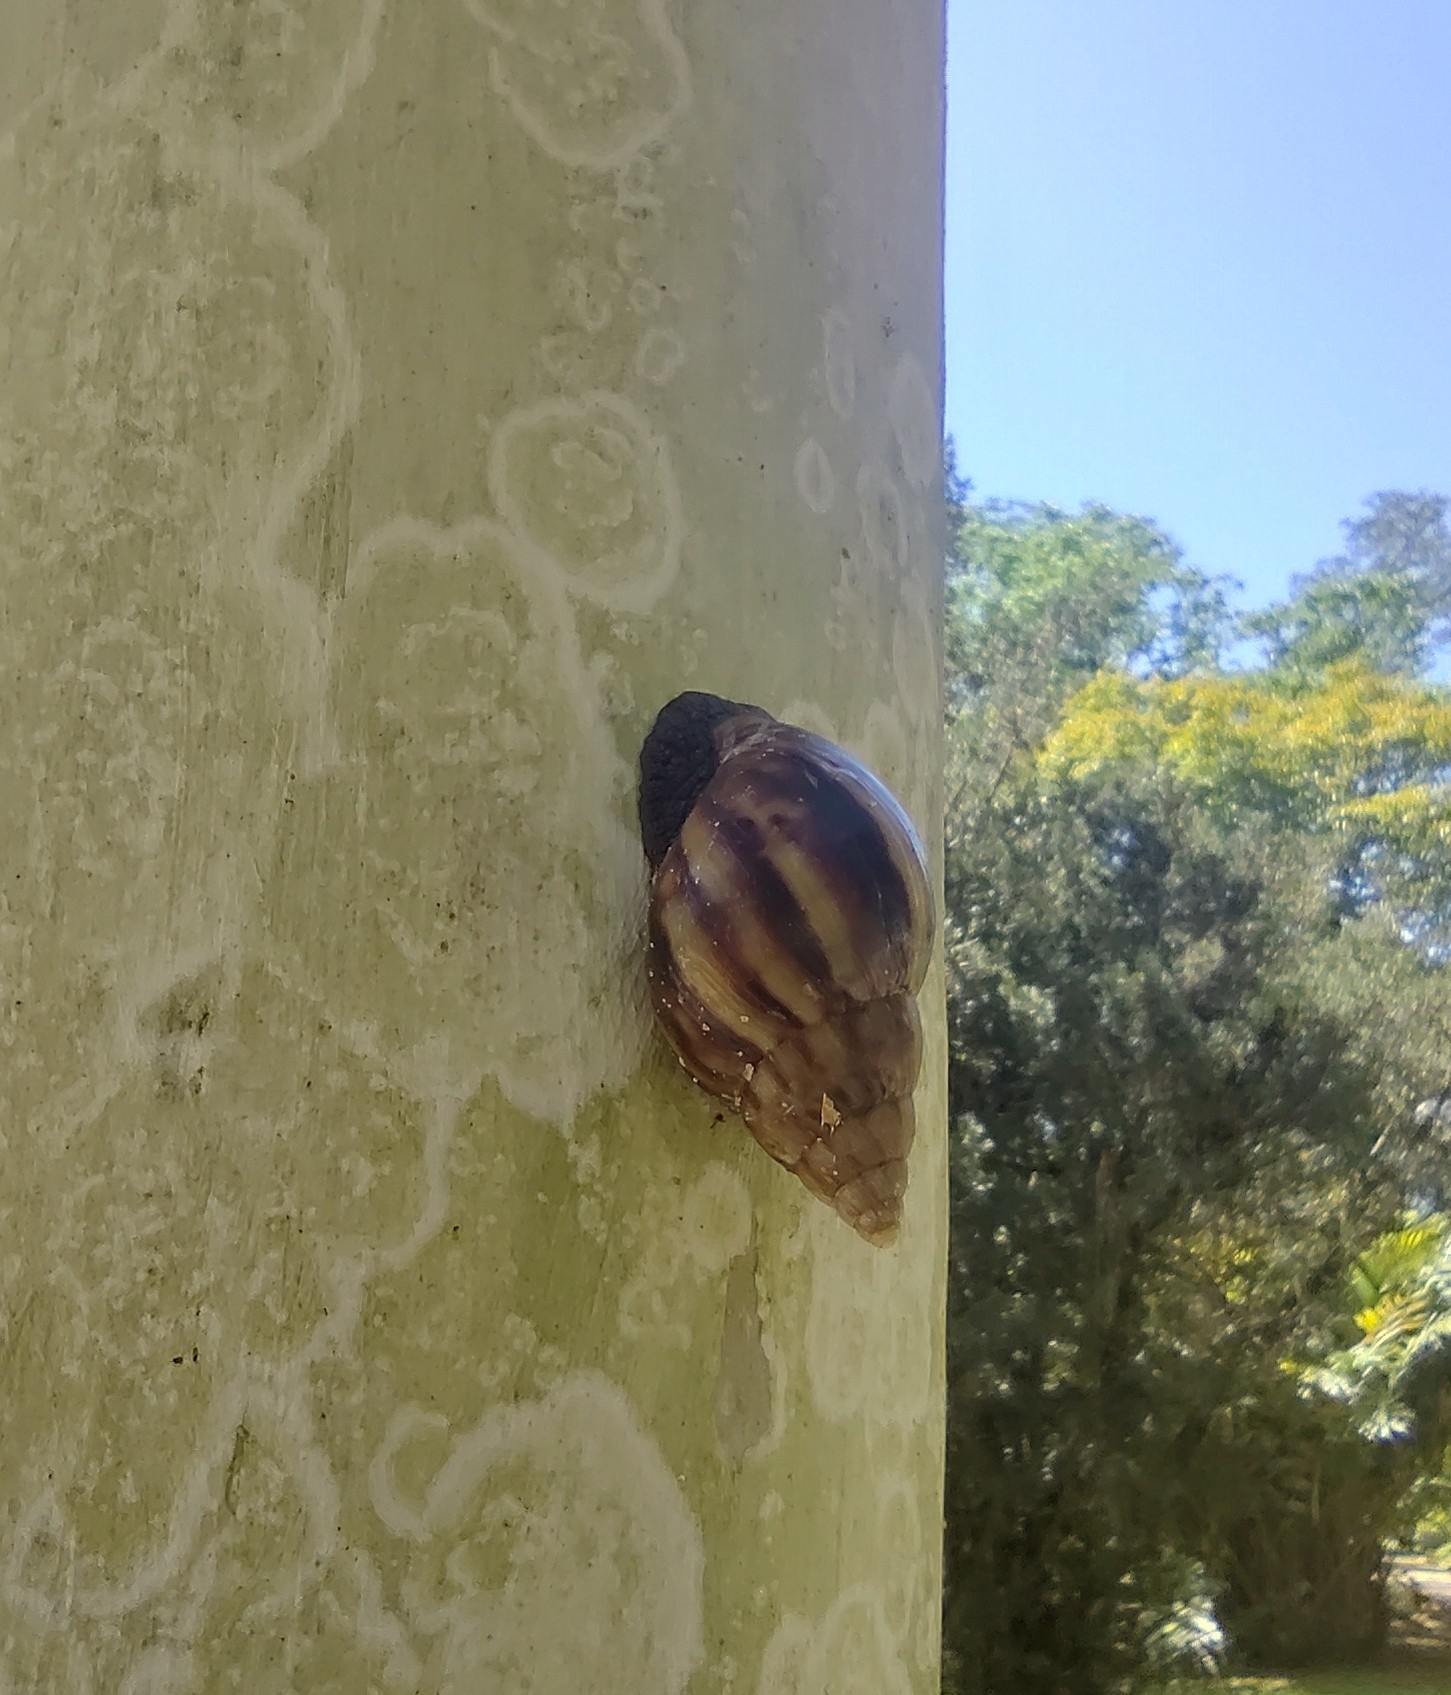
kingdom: Animalia
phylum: Mollusca
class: Gastropoda
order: Stylommatophora
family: Achatinidae
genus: Lissachatina
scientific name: Lissachatina fulica
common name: Giant african snail
